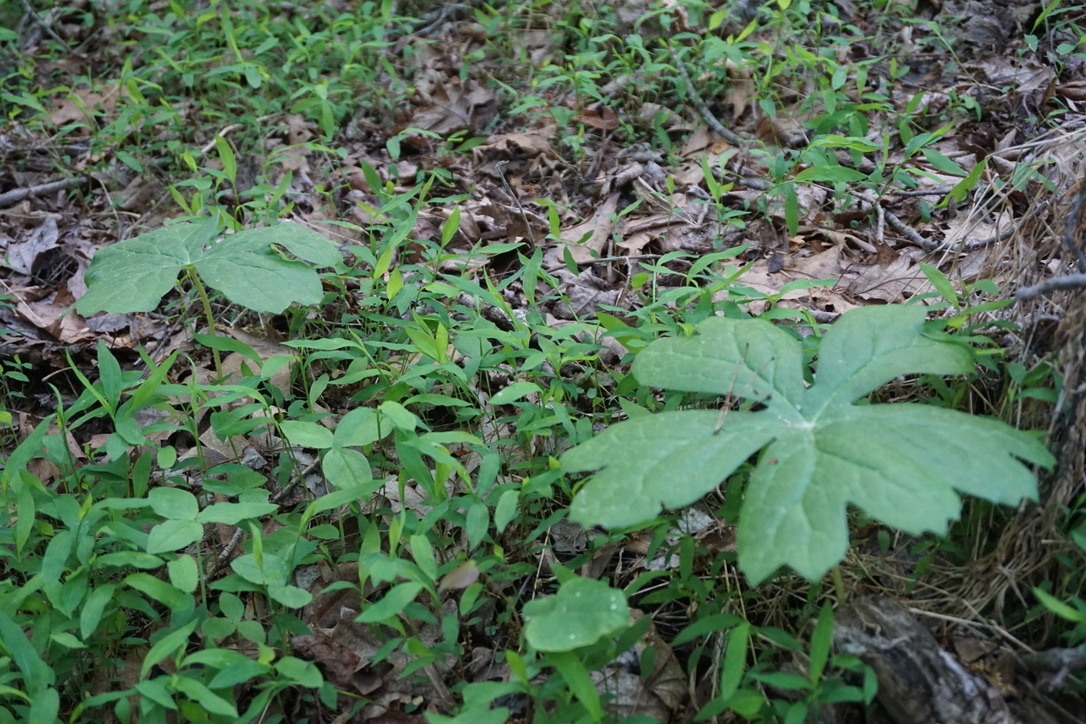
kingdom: Plantae
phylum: Tracheophyta
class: Magnoliopsida
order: Ranunculales
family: Berberidaceae
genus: Podophyllum
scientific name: Podophyllum peltatum
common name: Wild mandrake
